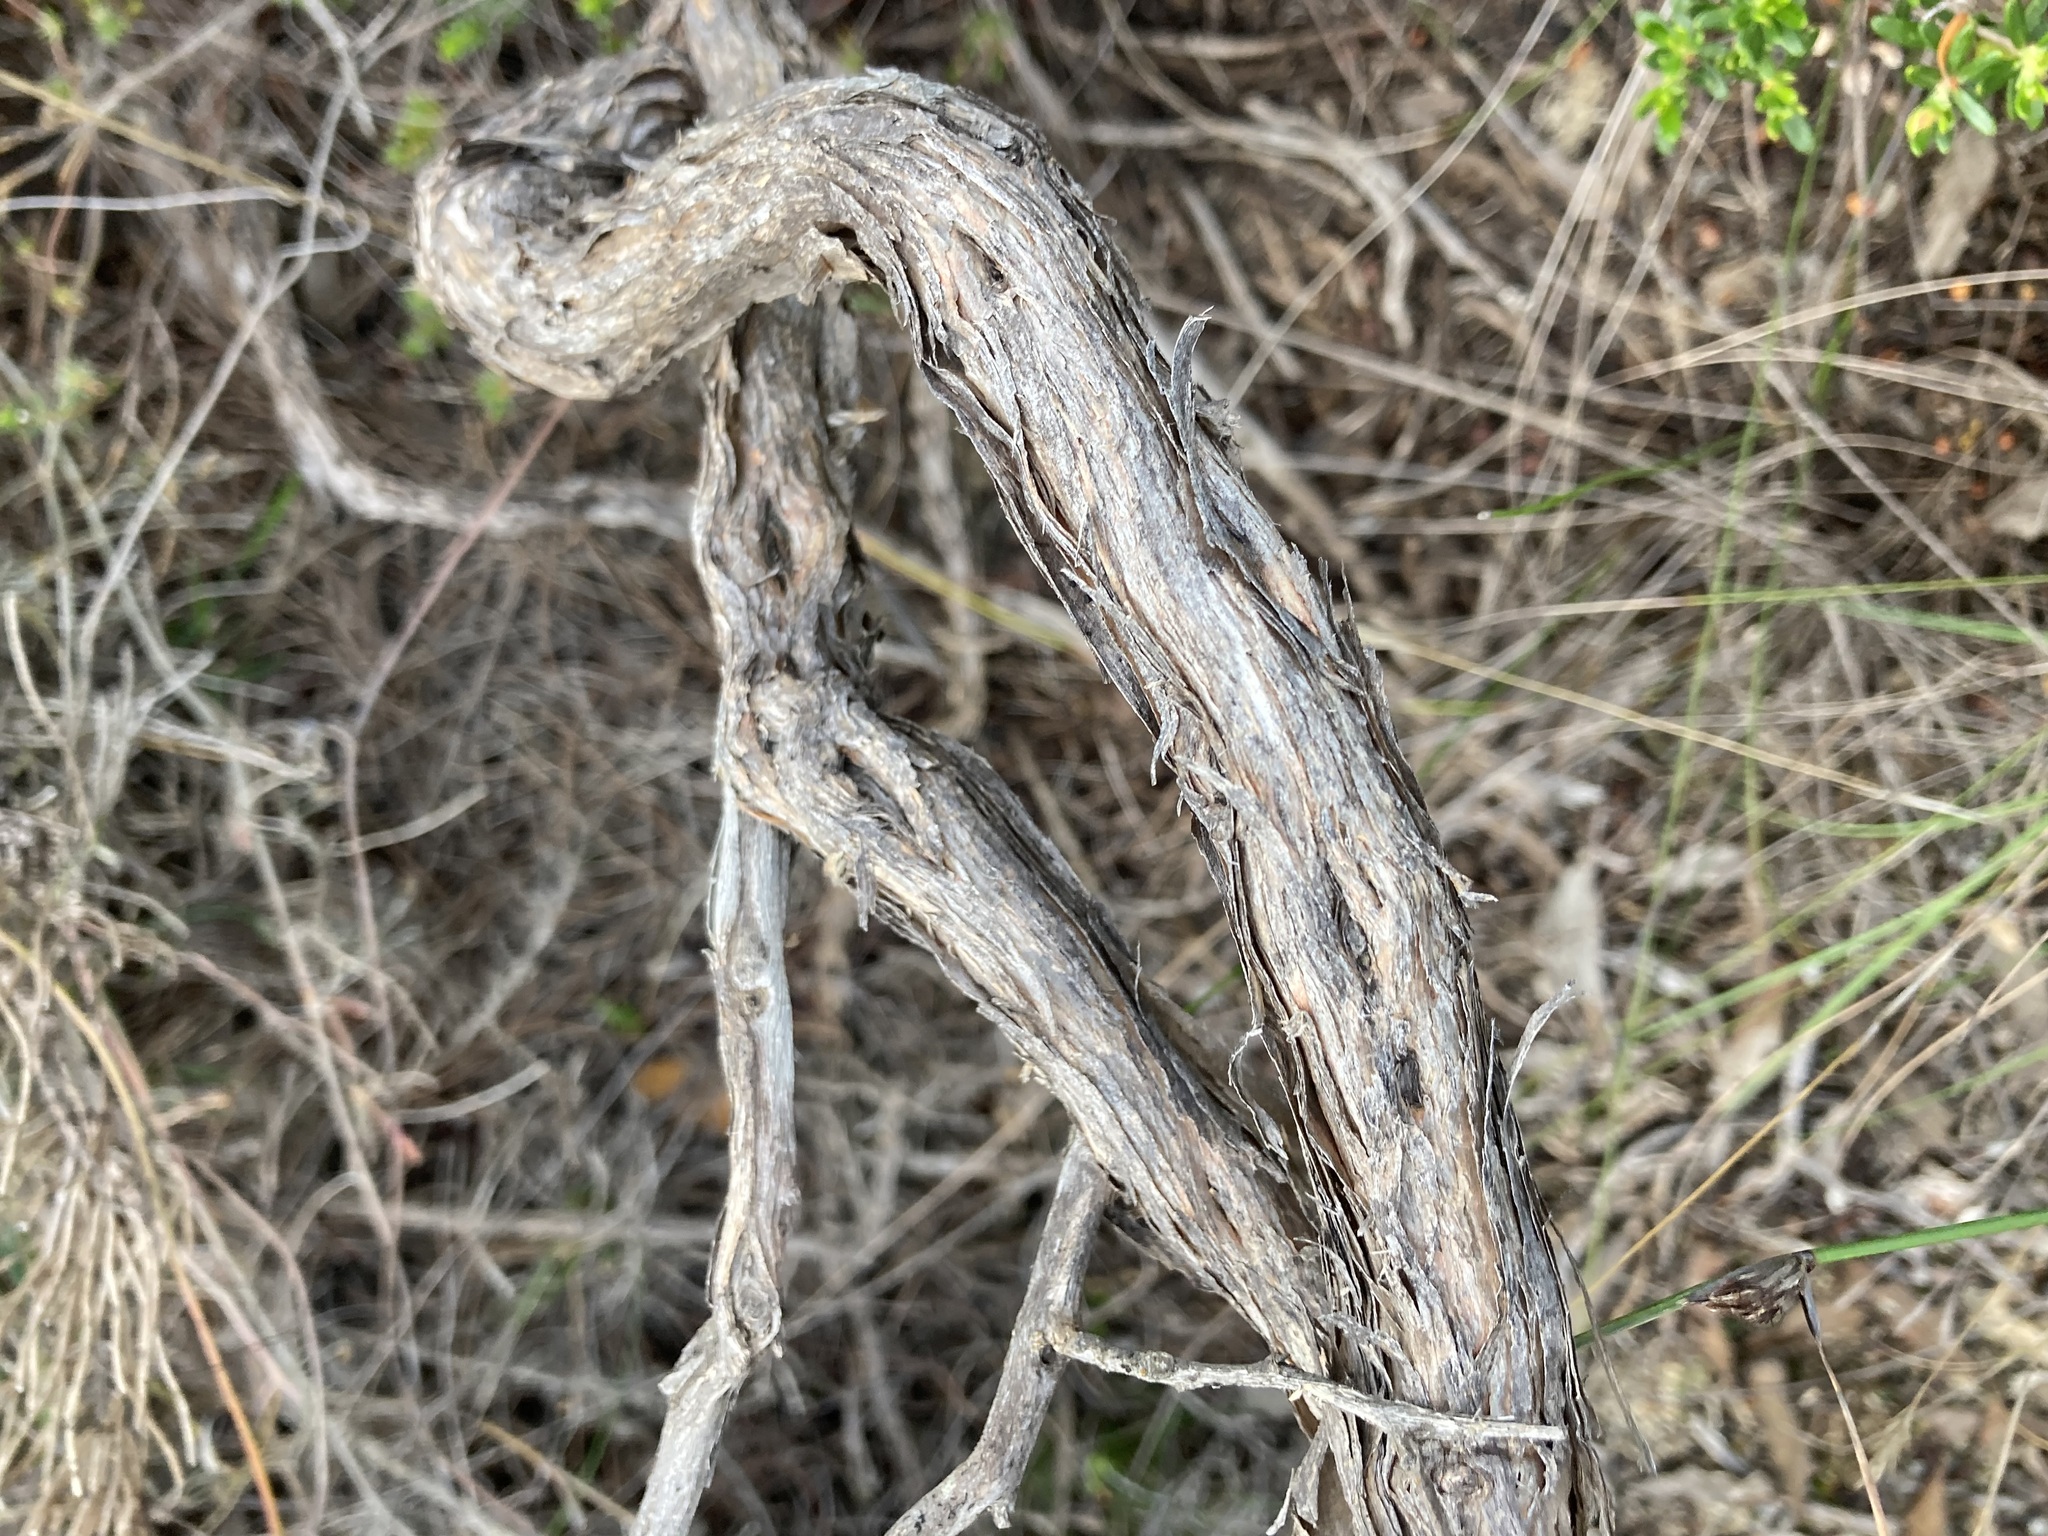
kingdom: Plantae
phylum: Tracheophyta
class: Magnoliopsida
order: Fabales
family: Fabaceae
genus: Jacksonia
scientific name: Jacksonia floribunda
